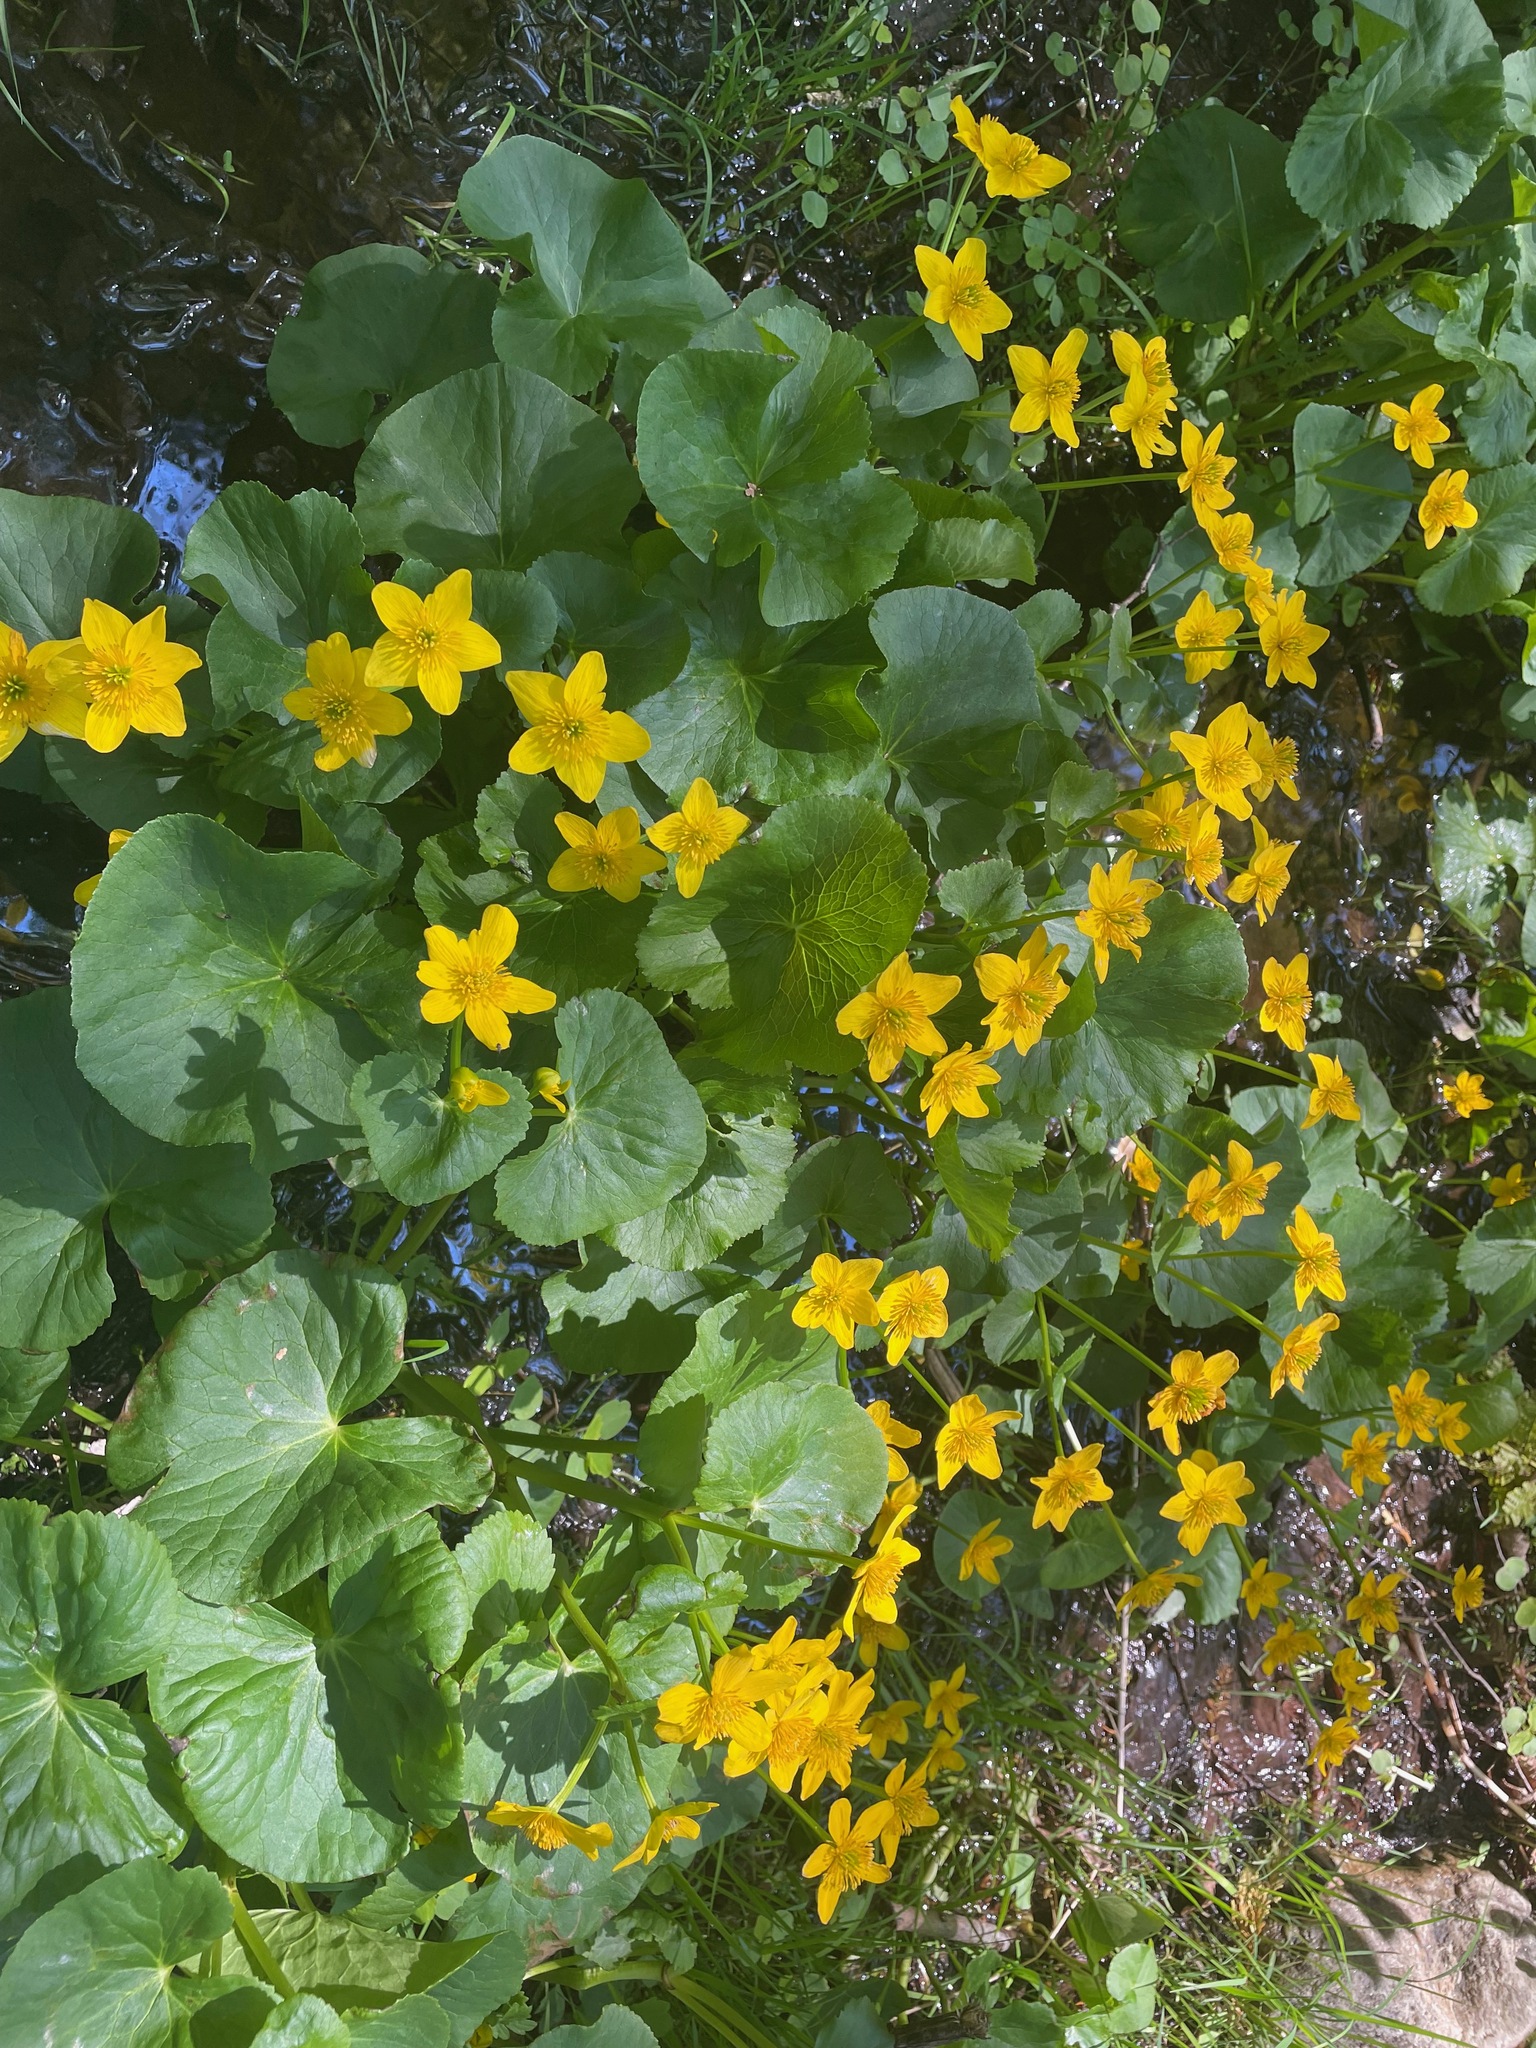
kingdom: Plantae
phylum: Tracheophyta
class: Magnoliopsida
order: Ranunculales
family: Ranunculaceae
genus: Caltha
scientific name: Caltha palustris
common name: Marsh marigold
